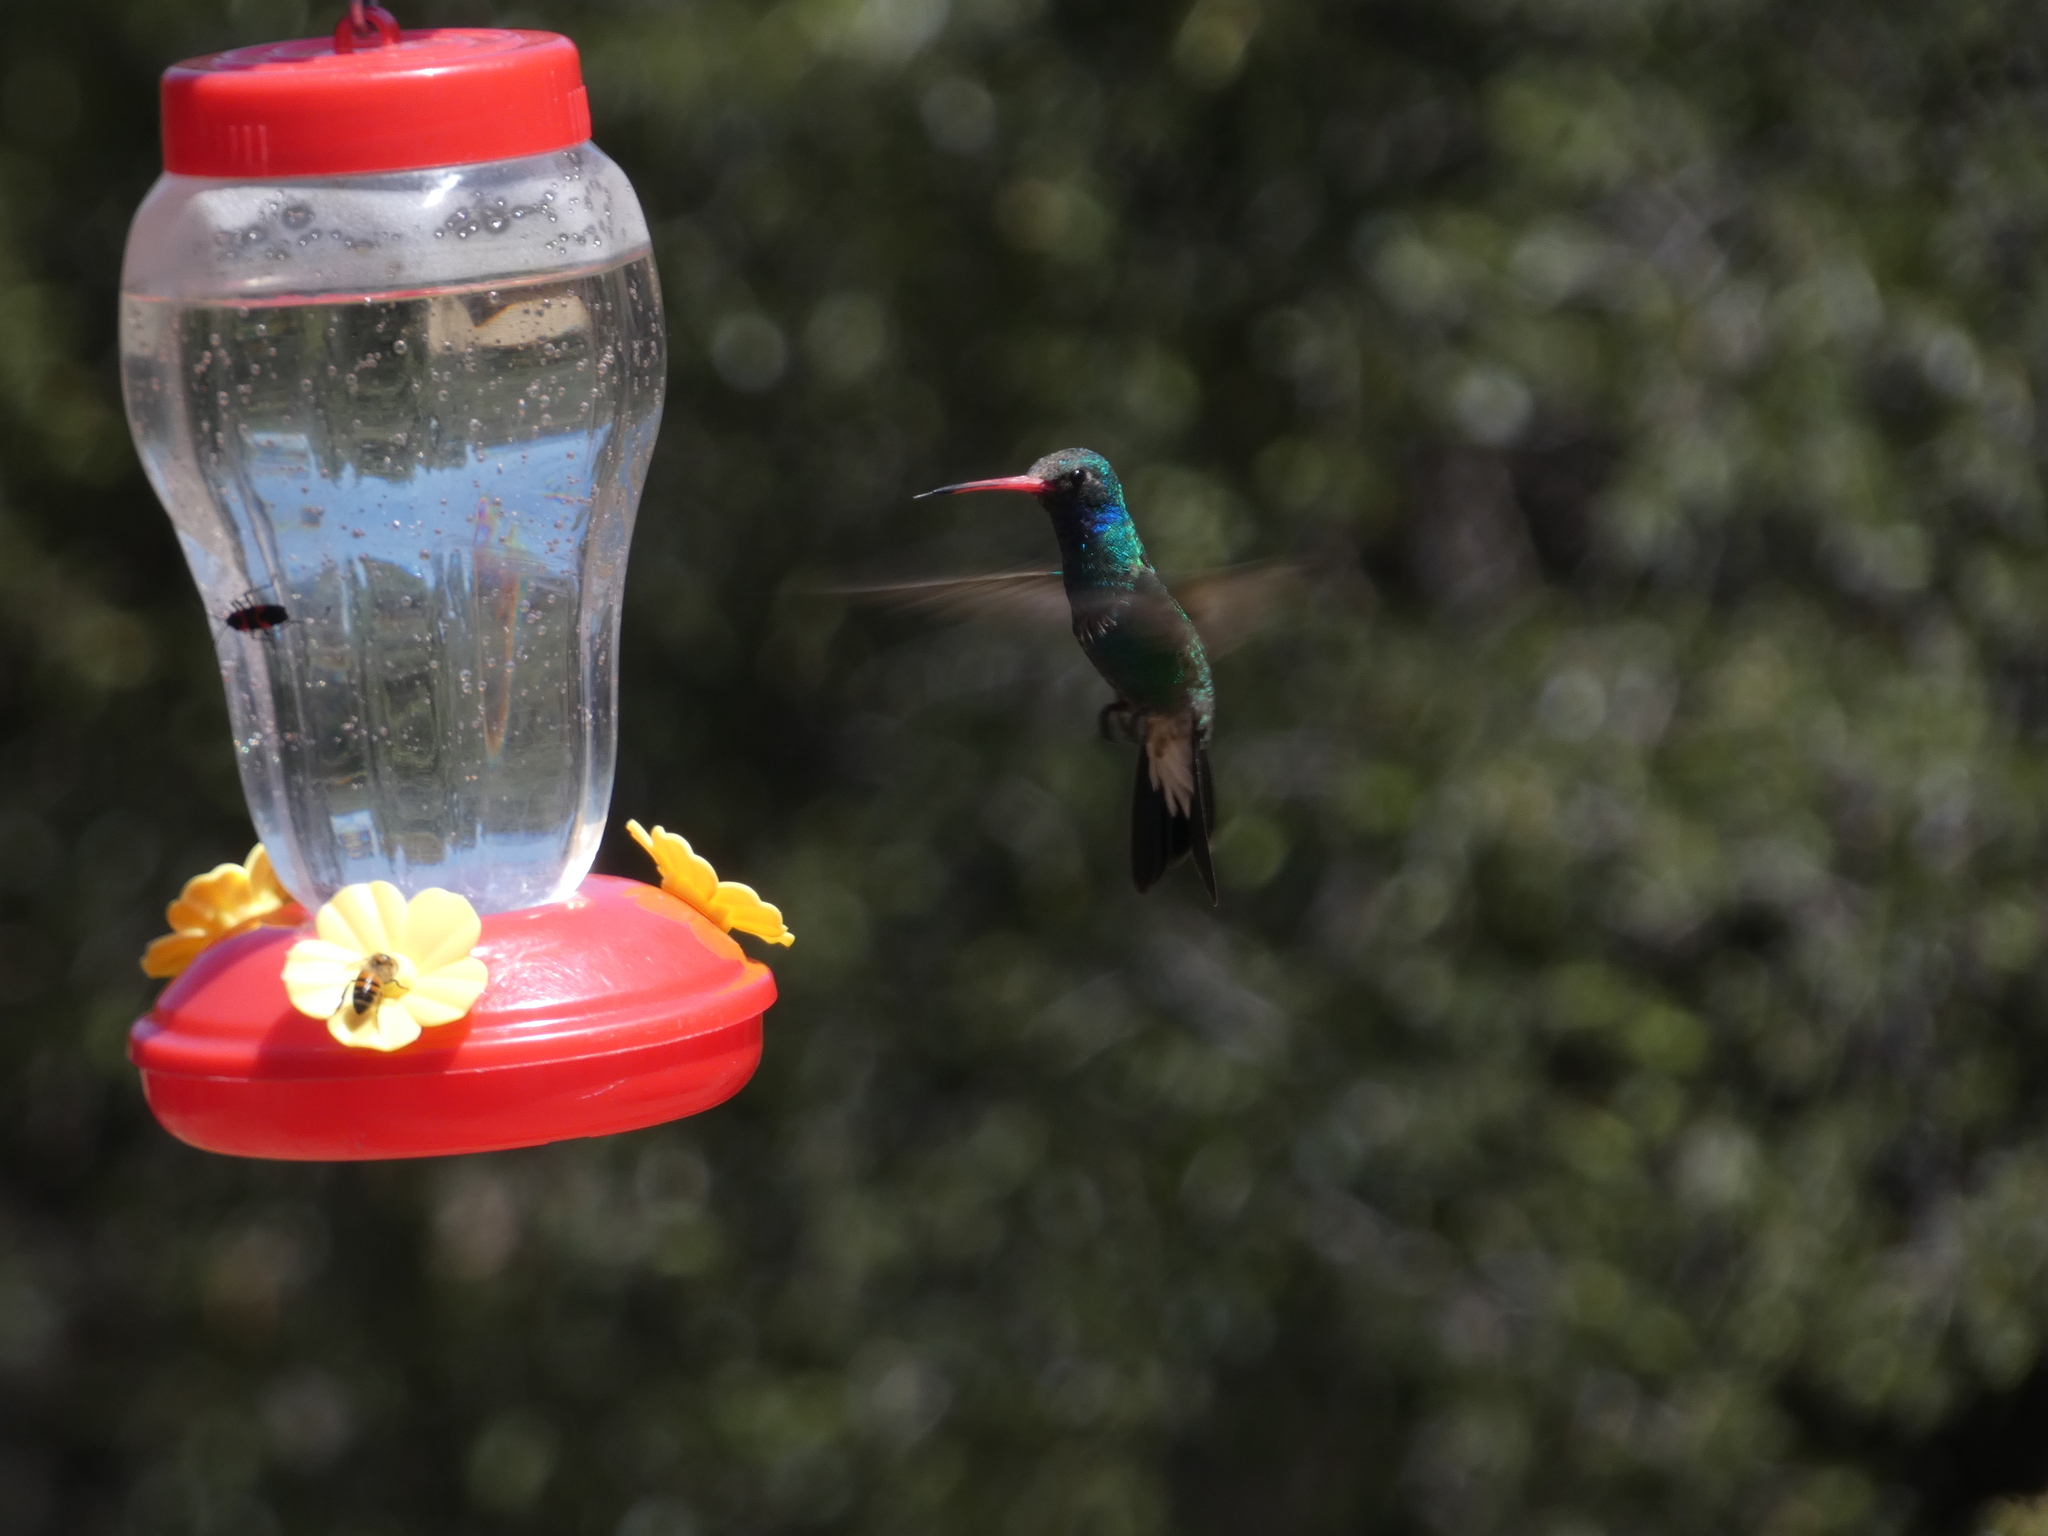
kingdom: Animalia
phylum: Chordata
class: Aves
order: Apodiformes
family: Trochilidae
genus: Cynanthus
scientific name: Cynanthus latirostris
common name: Broad-billed hummingbird
